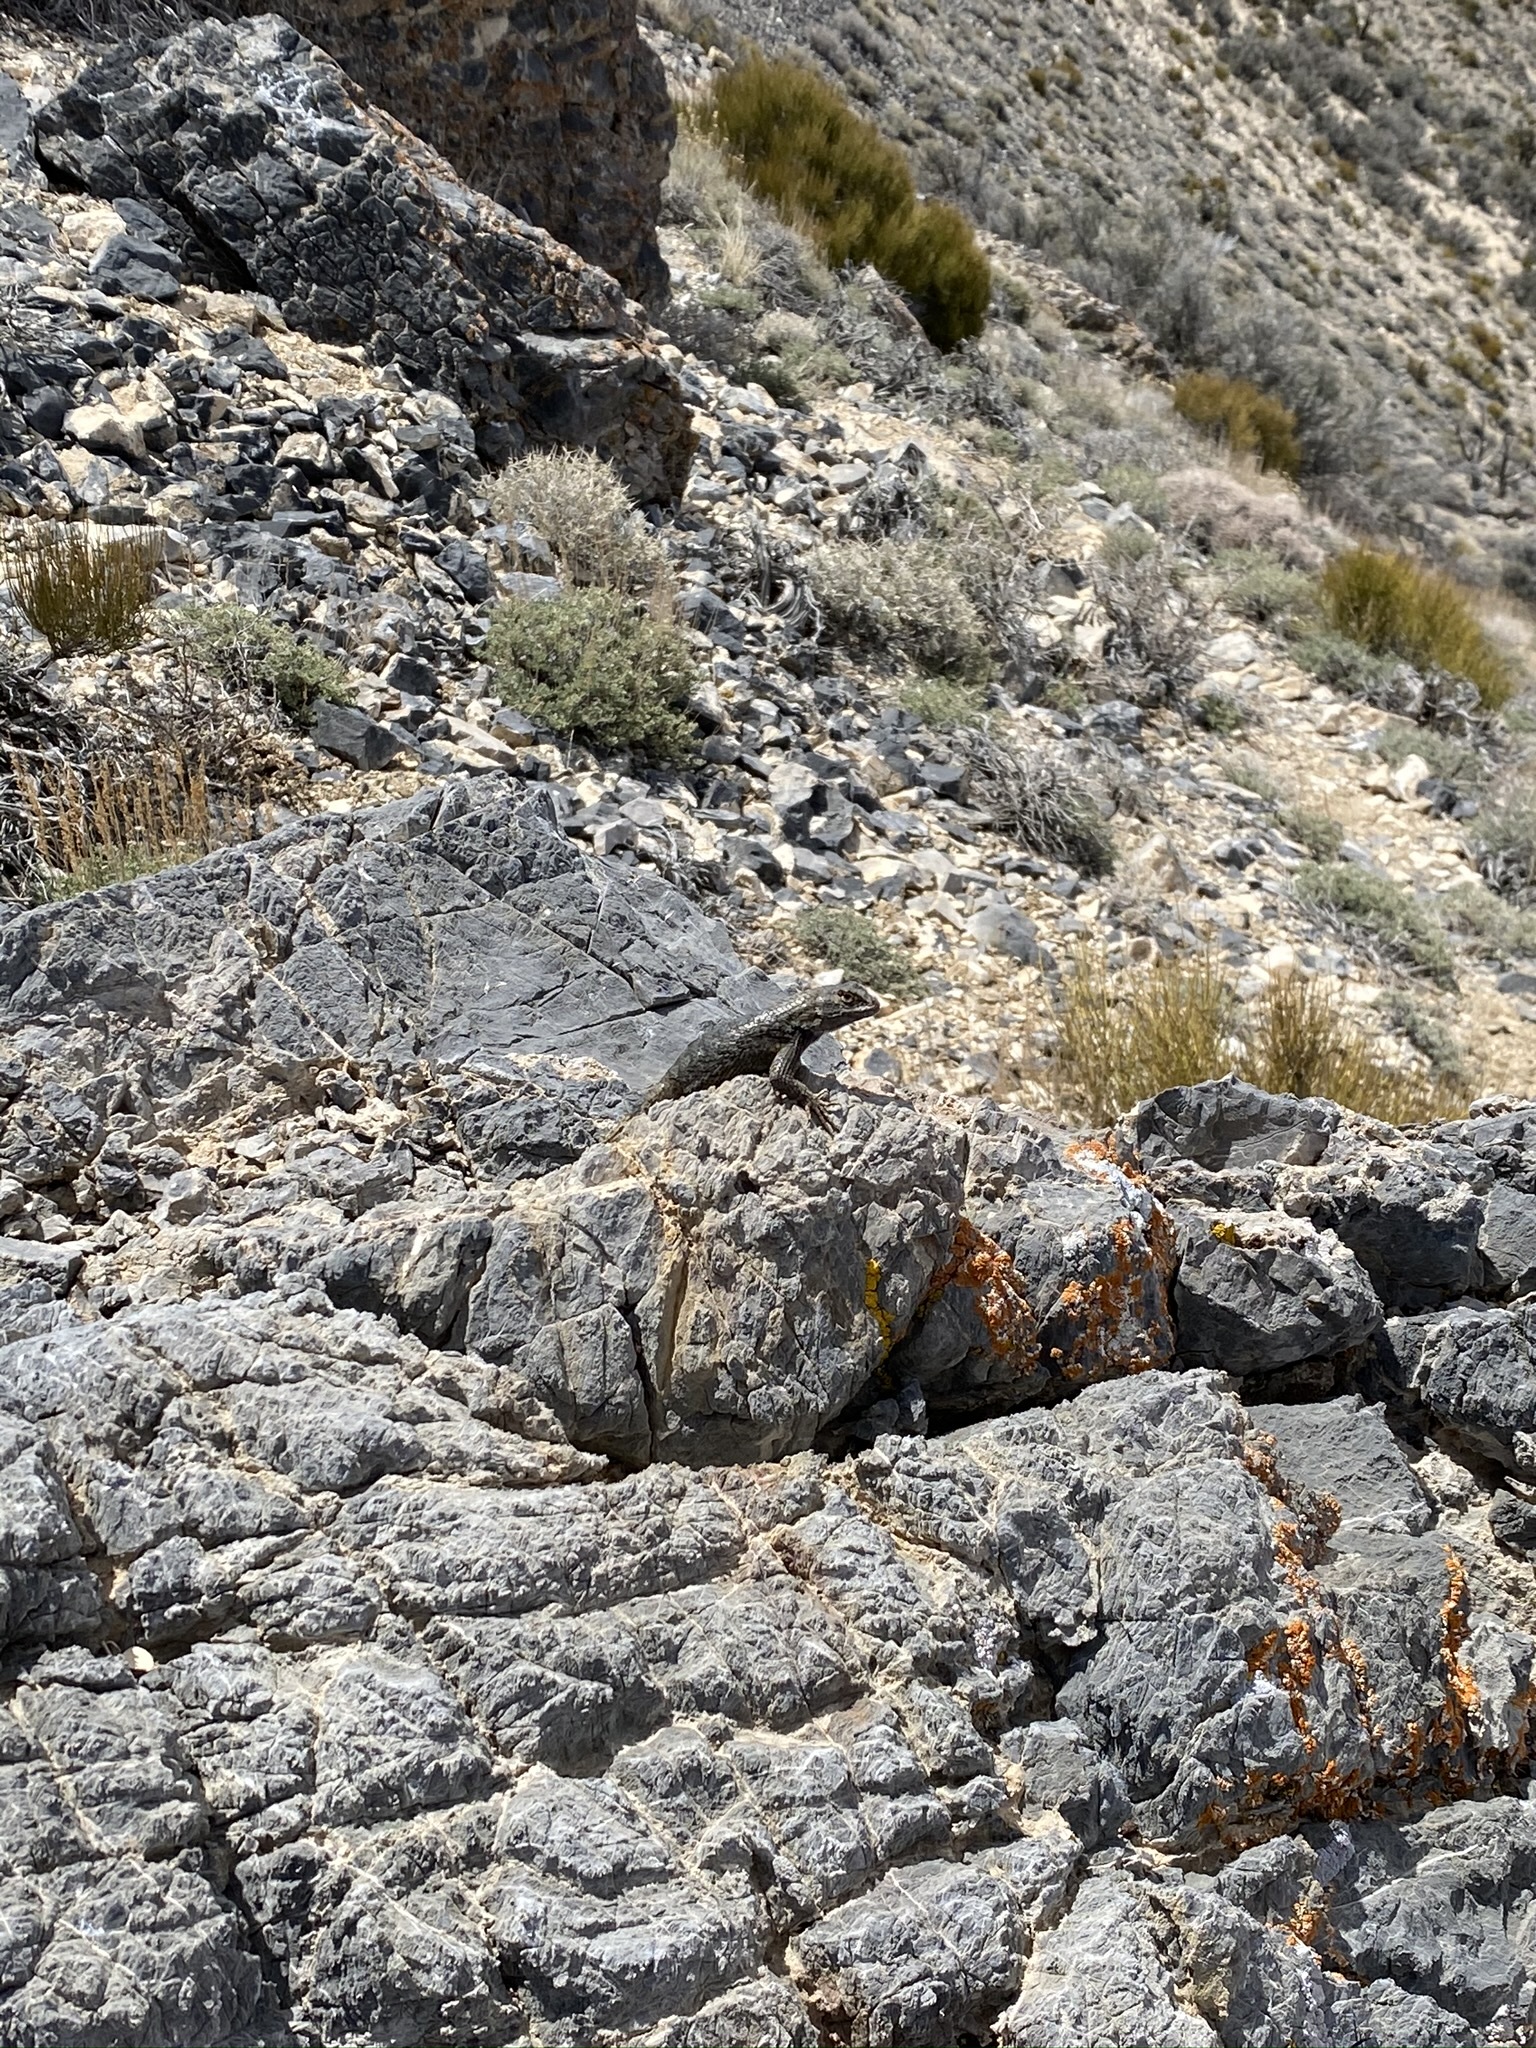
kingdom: Animalia
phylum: Chordata
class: Squamata
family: Phrynosomatidae
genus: Sceloporus
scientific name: Sceloporus occidentalis
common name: Western fence lizard
